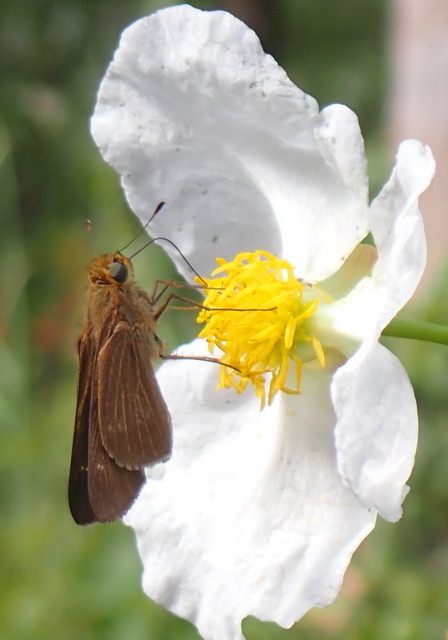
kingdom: Animalia
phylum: Arthropoda
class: Insecta
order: Lepidoptera
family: Hesperiidae
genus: Panoquina
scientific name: Panoquina ocola
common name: Ocola skipper
